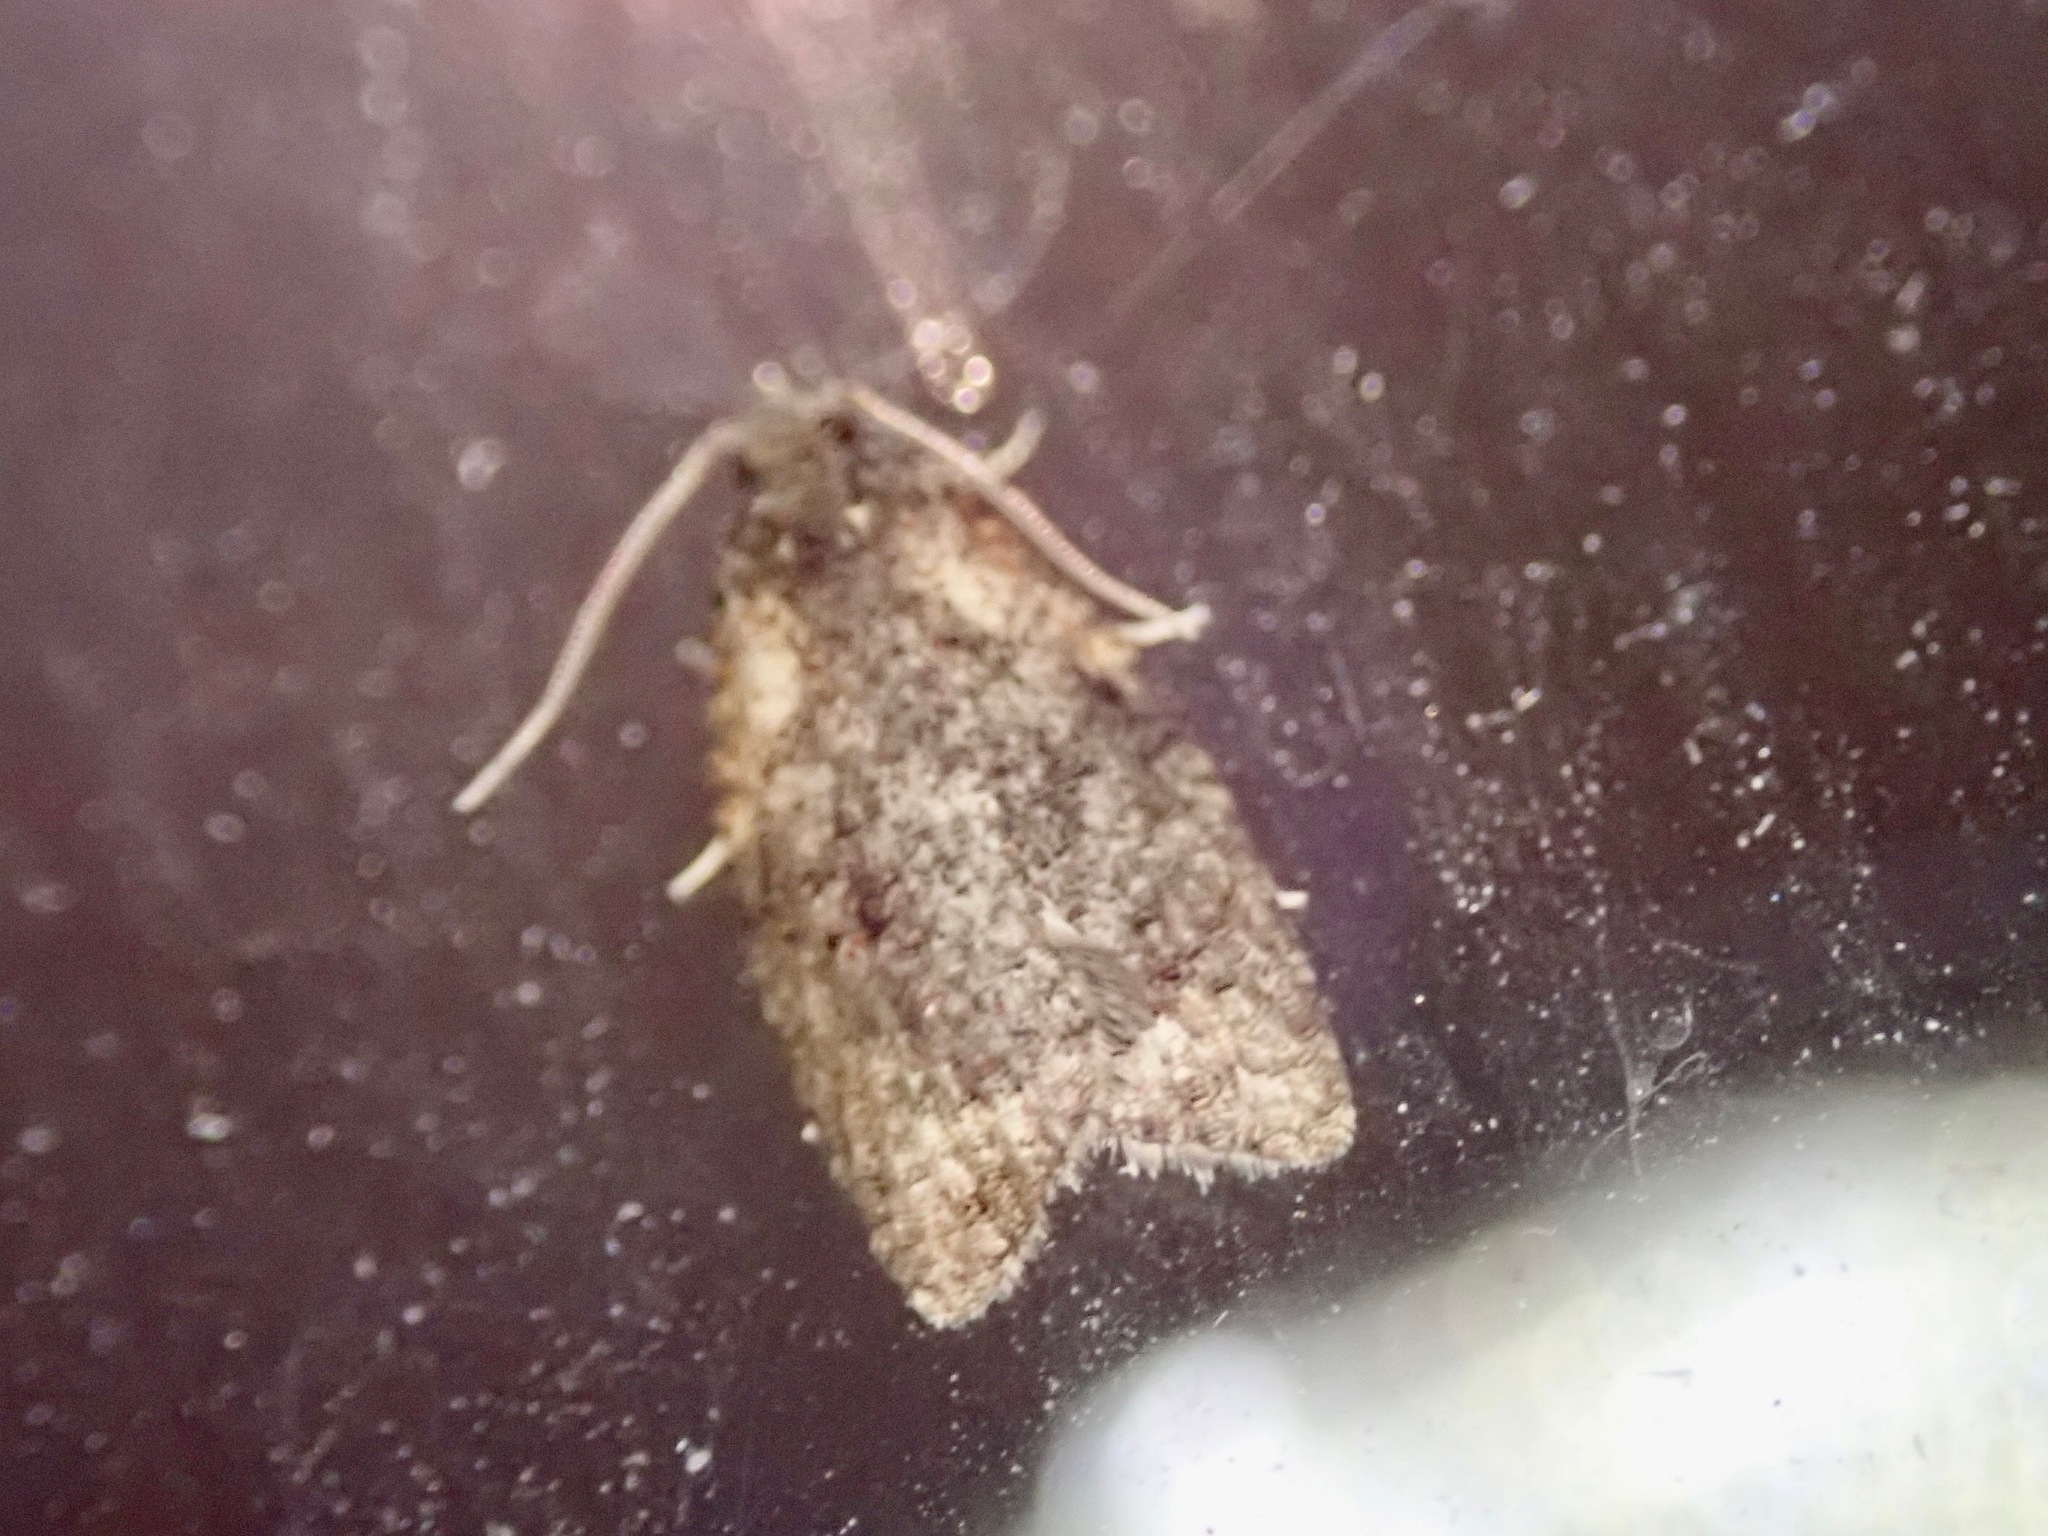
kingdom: Animalia
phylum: Arthropoda
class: Insecta
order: Lepidoptera
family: Tortricidae
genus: Capua
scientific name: Capua intractana
